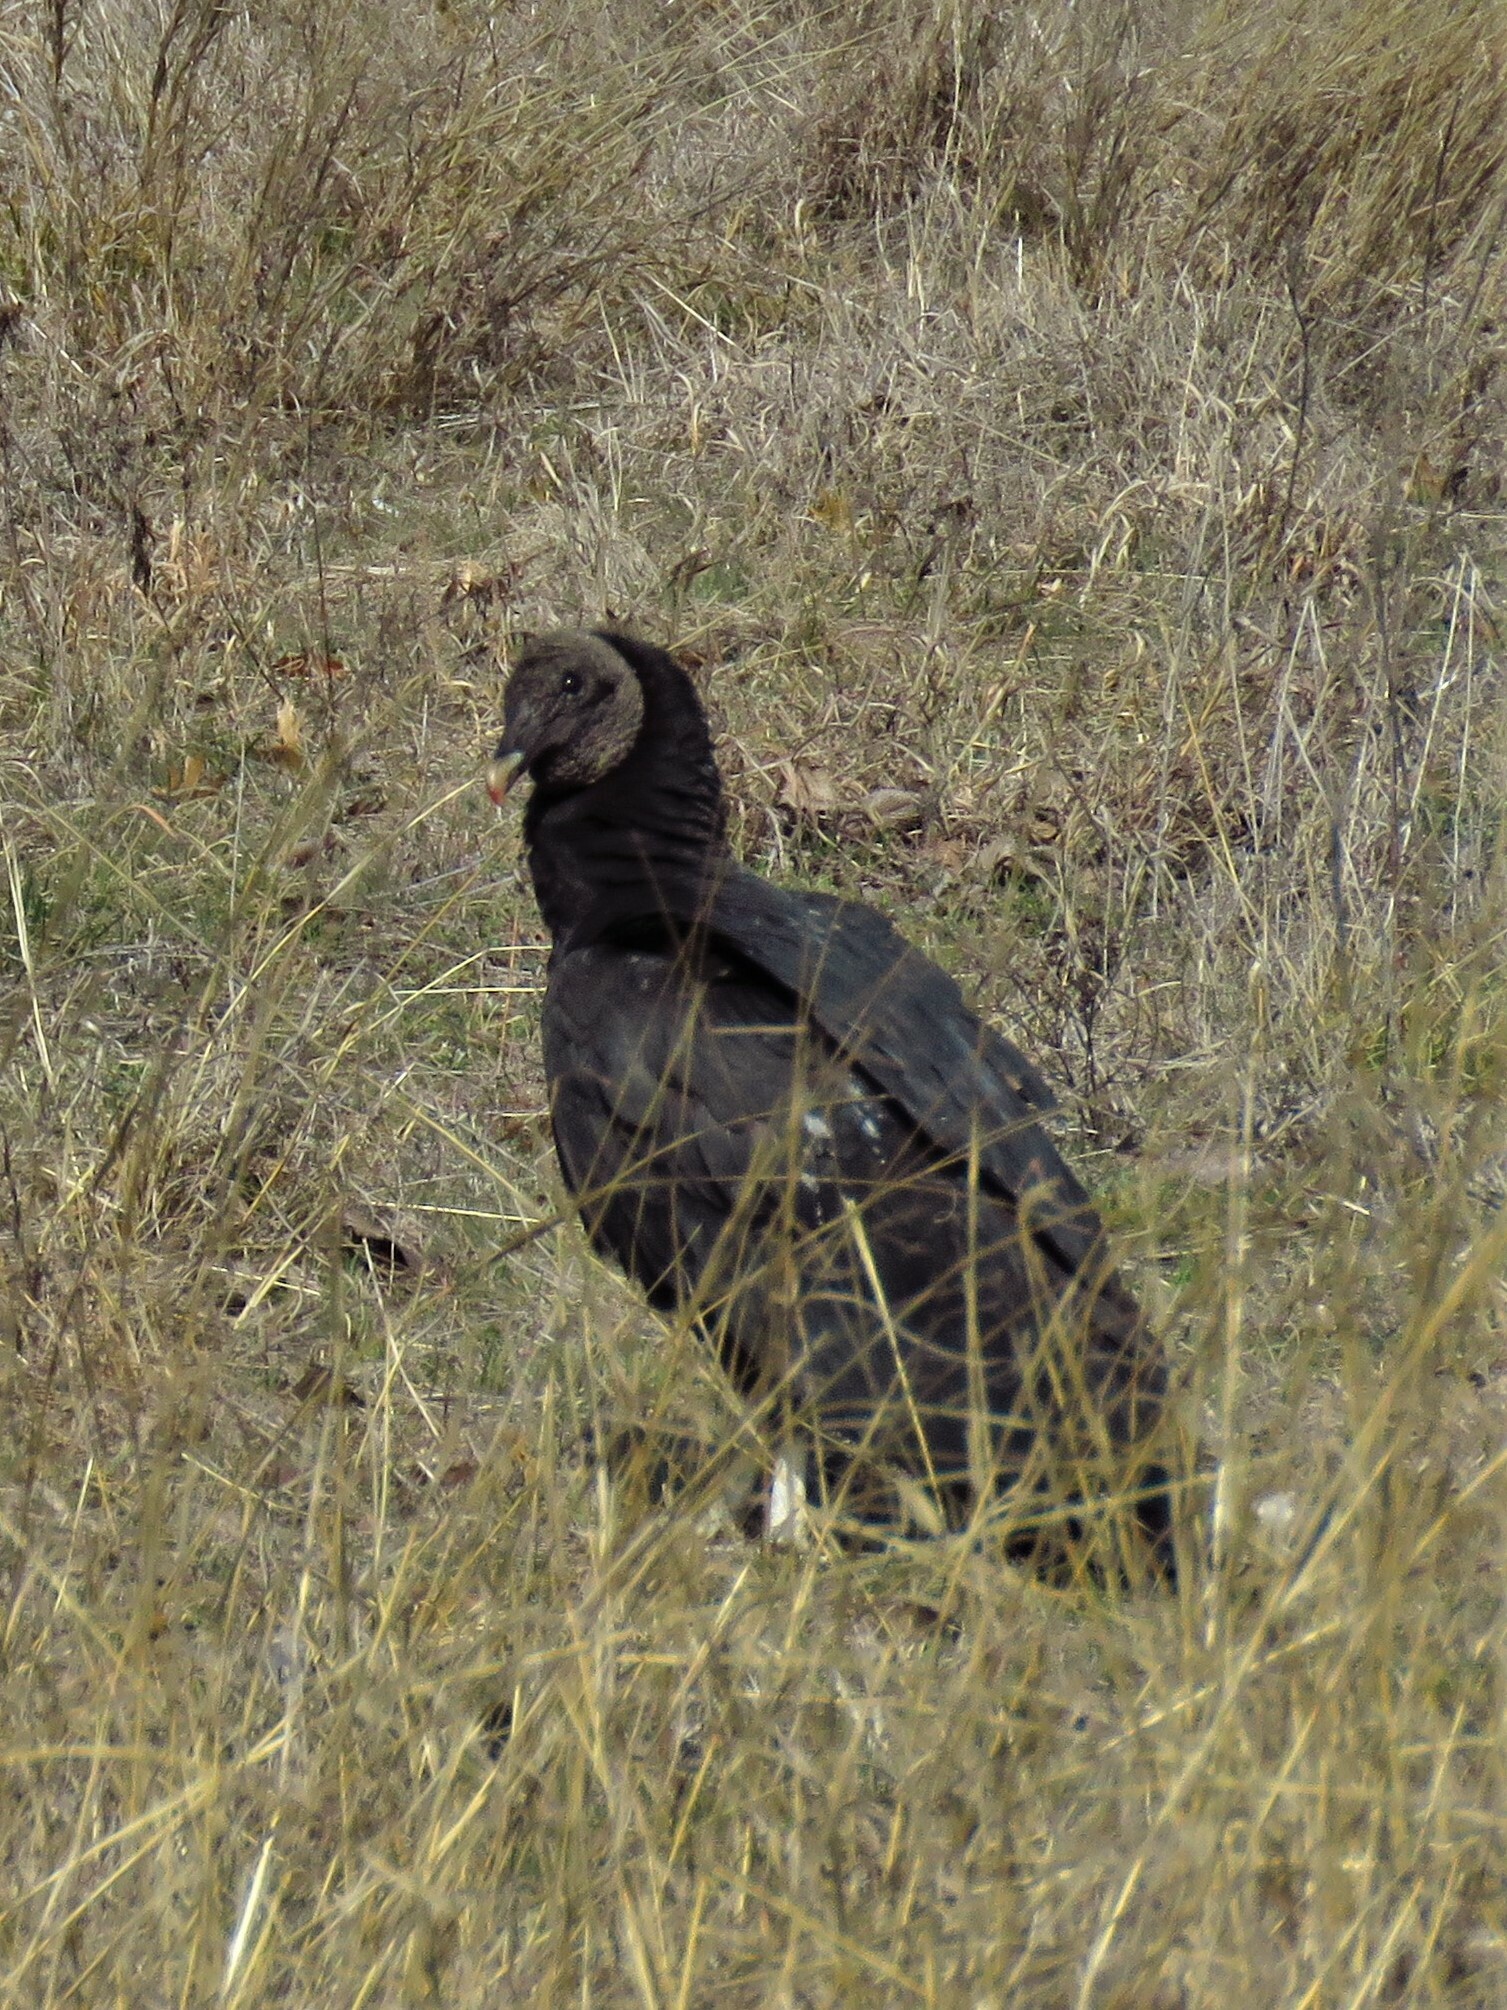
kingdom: Animalia
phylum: Chordata
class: Aves
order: Accipitriformes
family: Cathartidae
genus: Coragyps
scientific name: Coragyps atratus
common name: Black vulture
